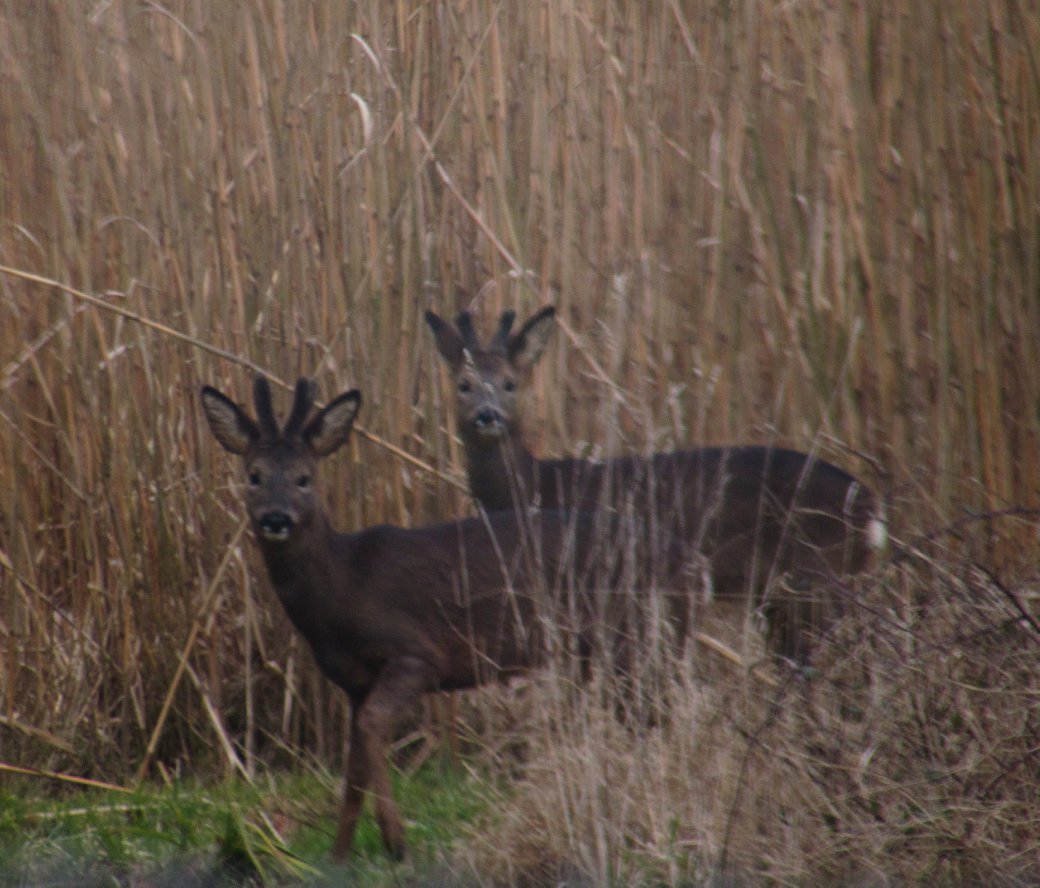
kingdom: Animalia
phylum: Chordata
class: Mammalia
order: Artiodactyla
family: Cervidae
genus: Capreolus
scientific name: Capreolus capreolus
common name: Western roe deer
